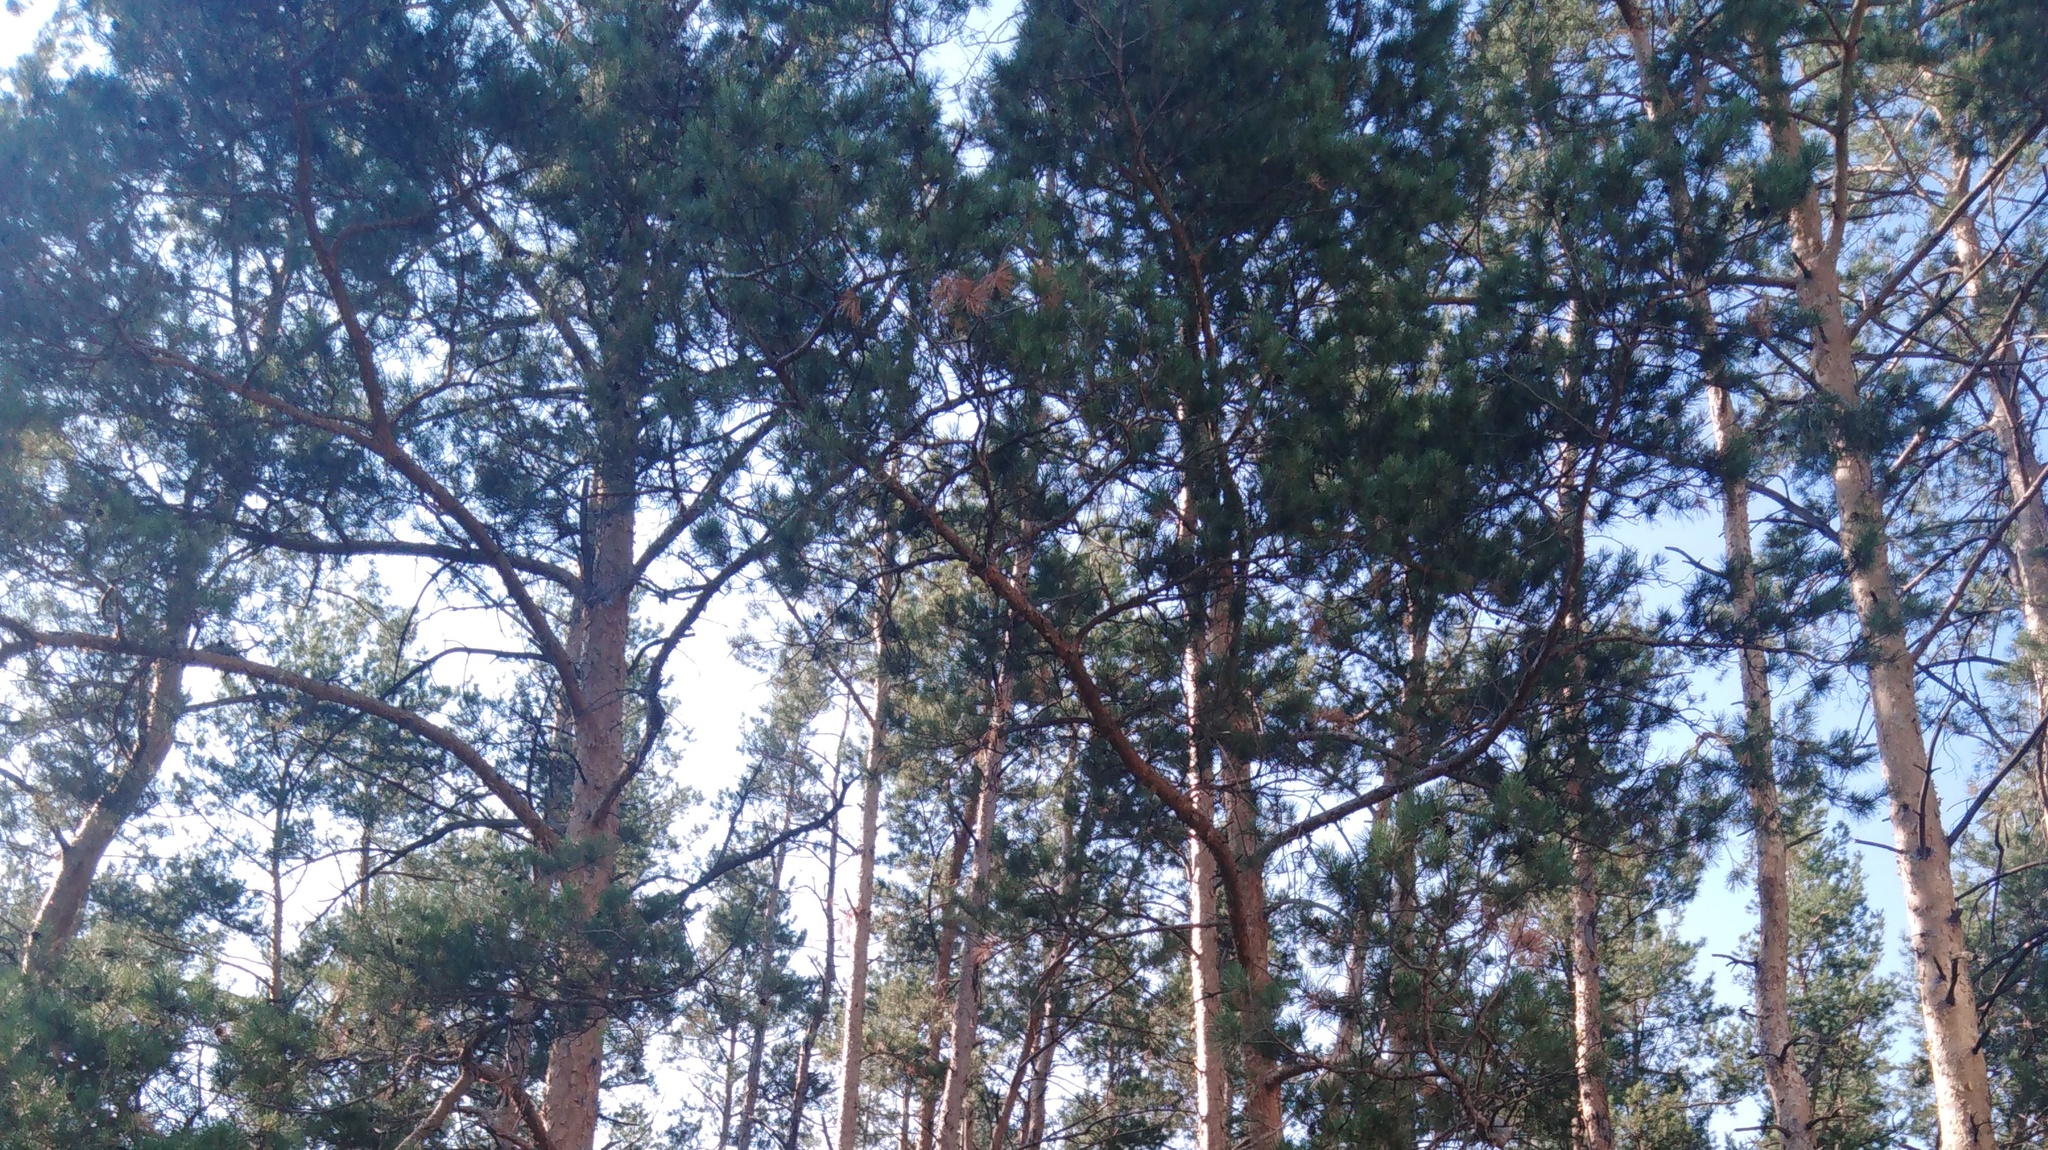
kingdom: Plantae
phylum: Tracheophyta
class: Pinopsida
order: Pinales
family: Pinaceae
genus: Pinus
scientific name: Pinus sylvestris
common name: Scots pine
